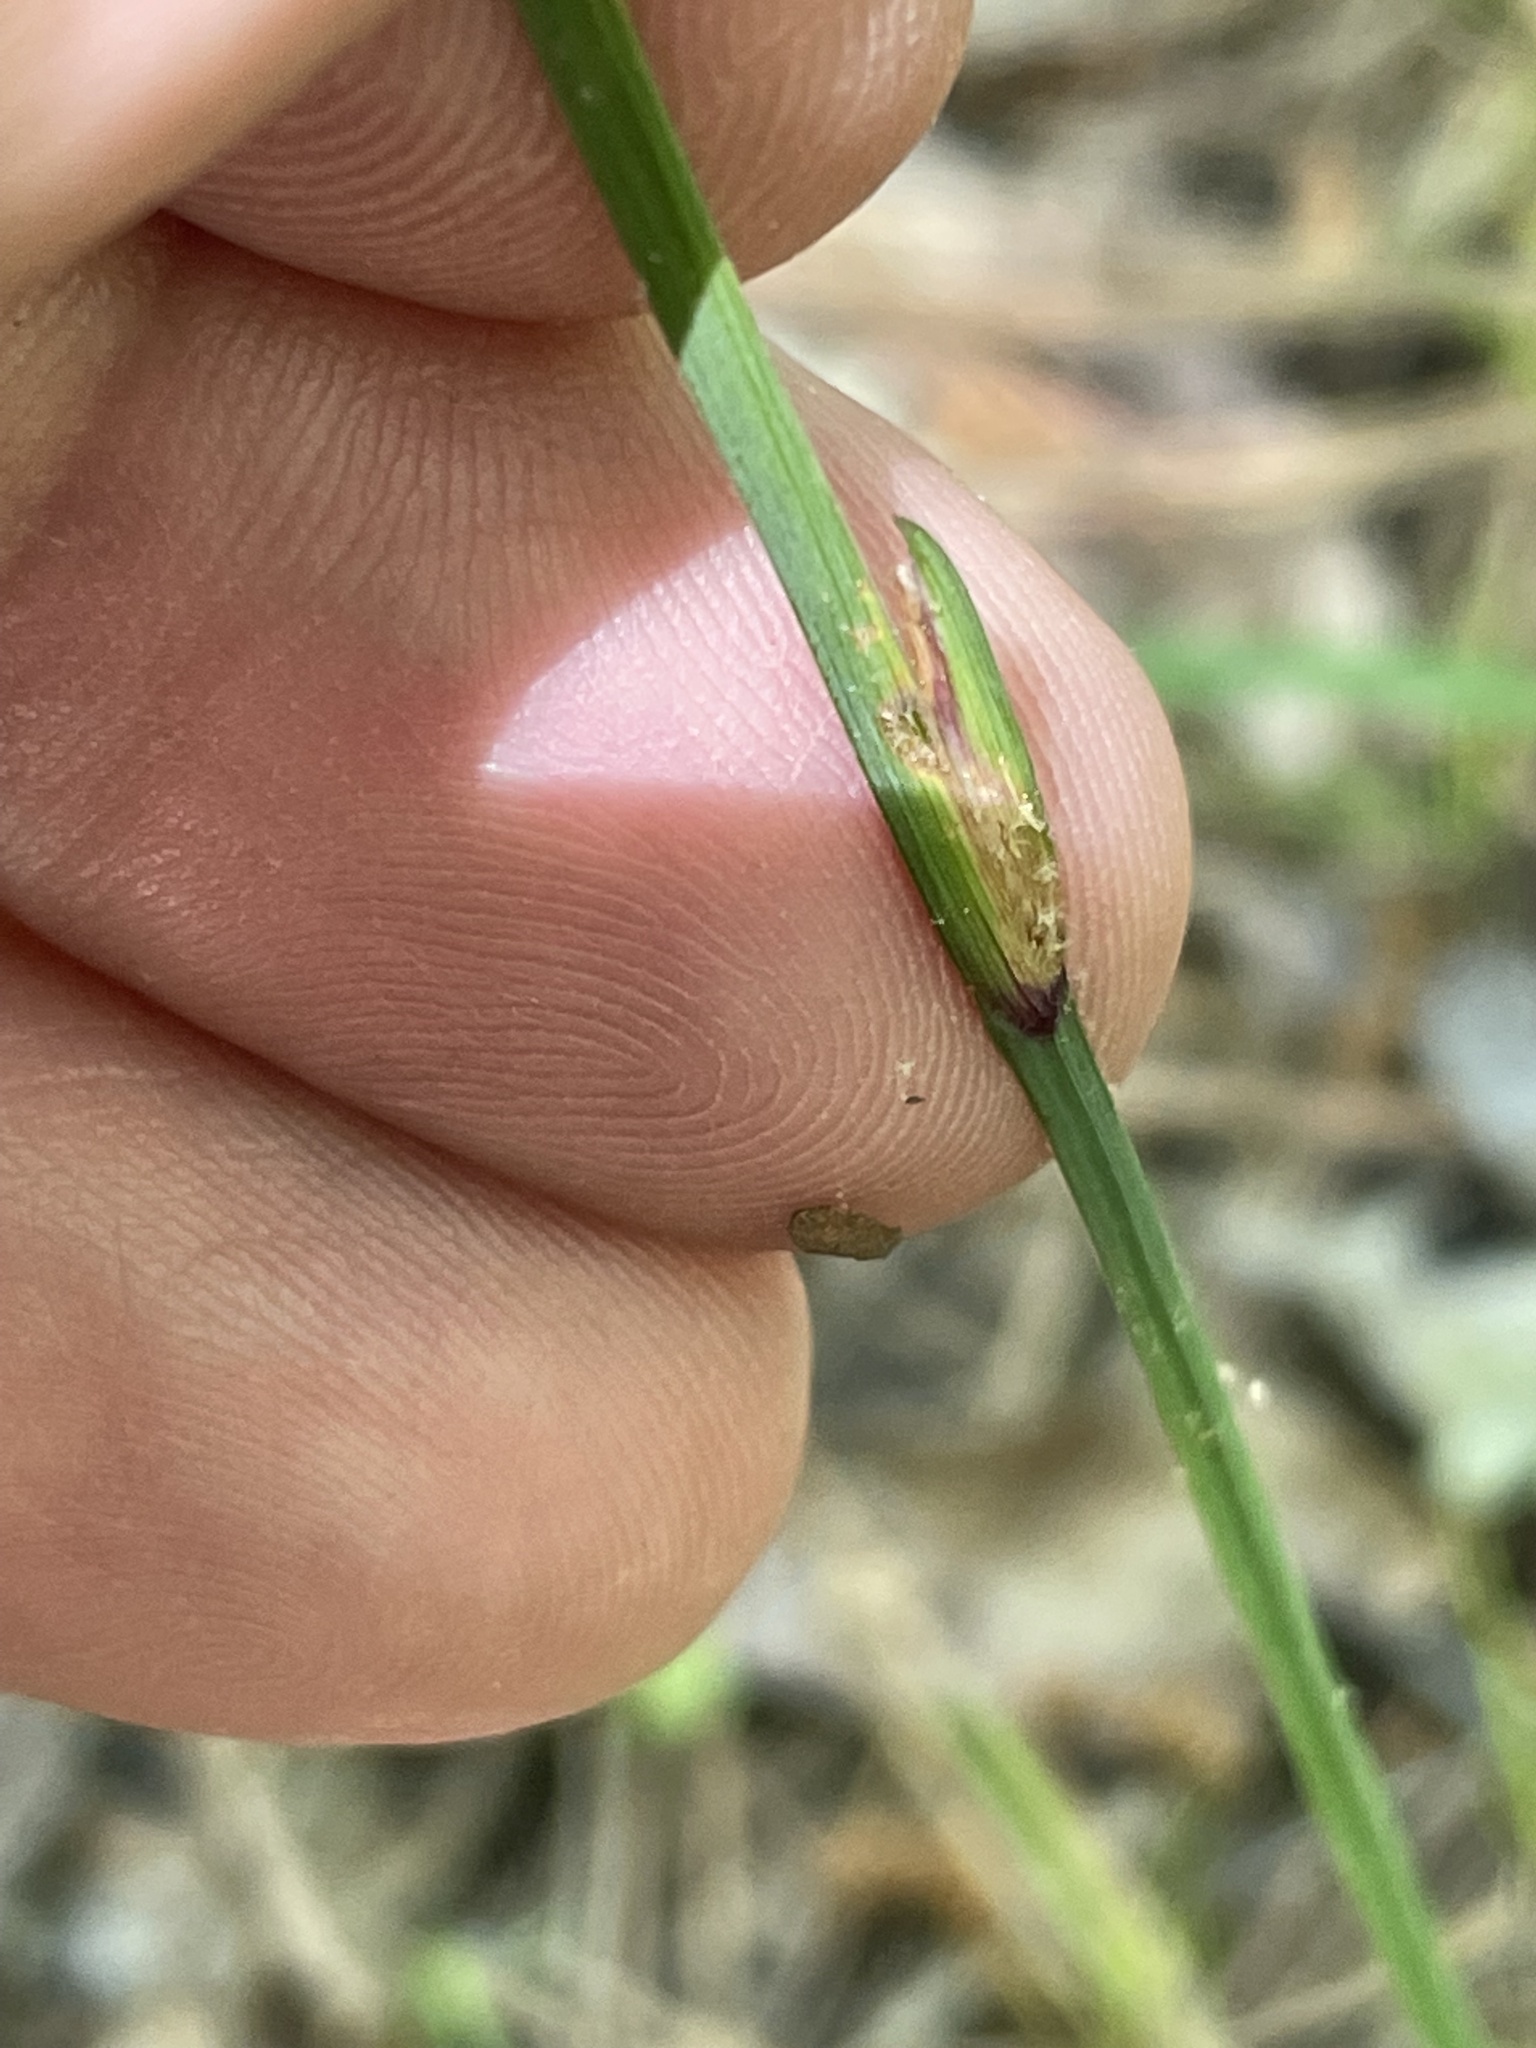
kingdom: Plantae
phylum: Tracheophyta
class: Liliopsida
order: Asparagales
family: Iridaceae
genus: Sisyrinchium
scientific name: Sisyrinchium angustifolium
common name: Narrow-leaf blue-eyed-grass
